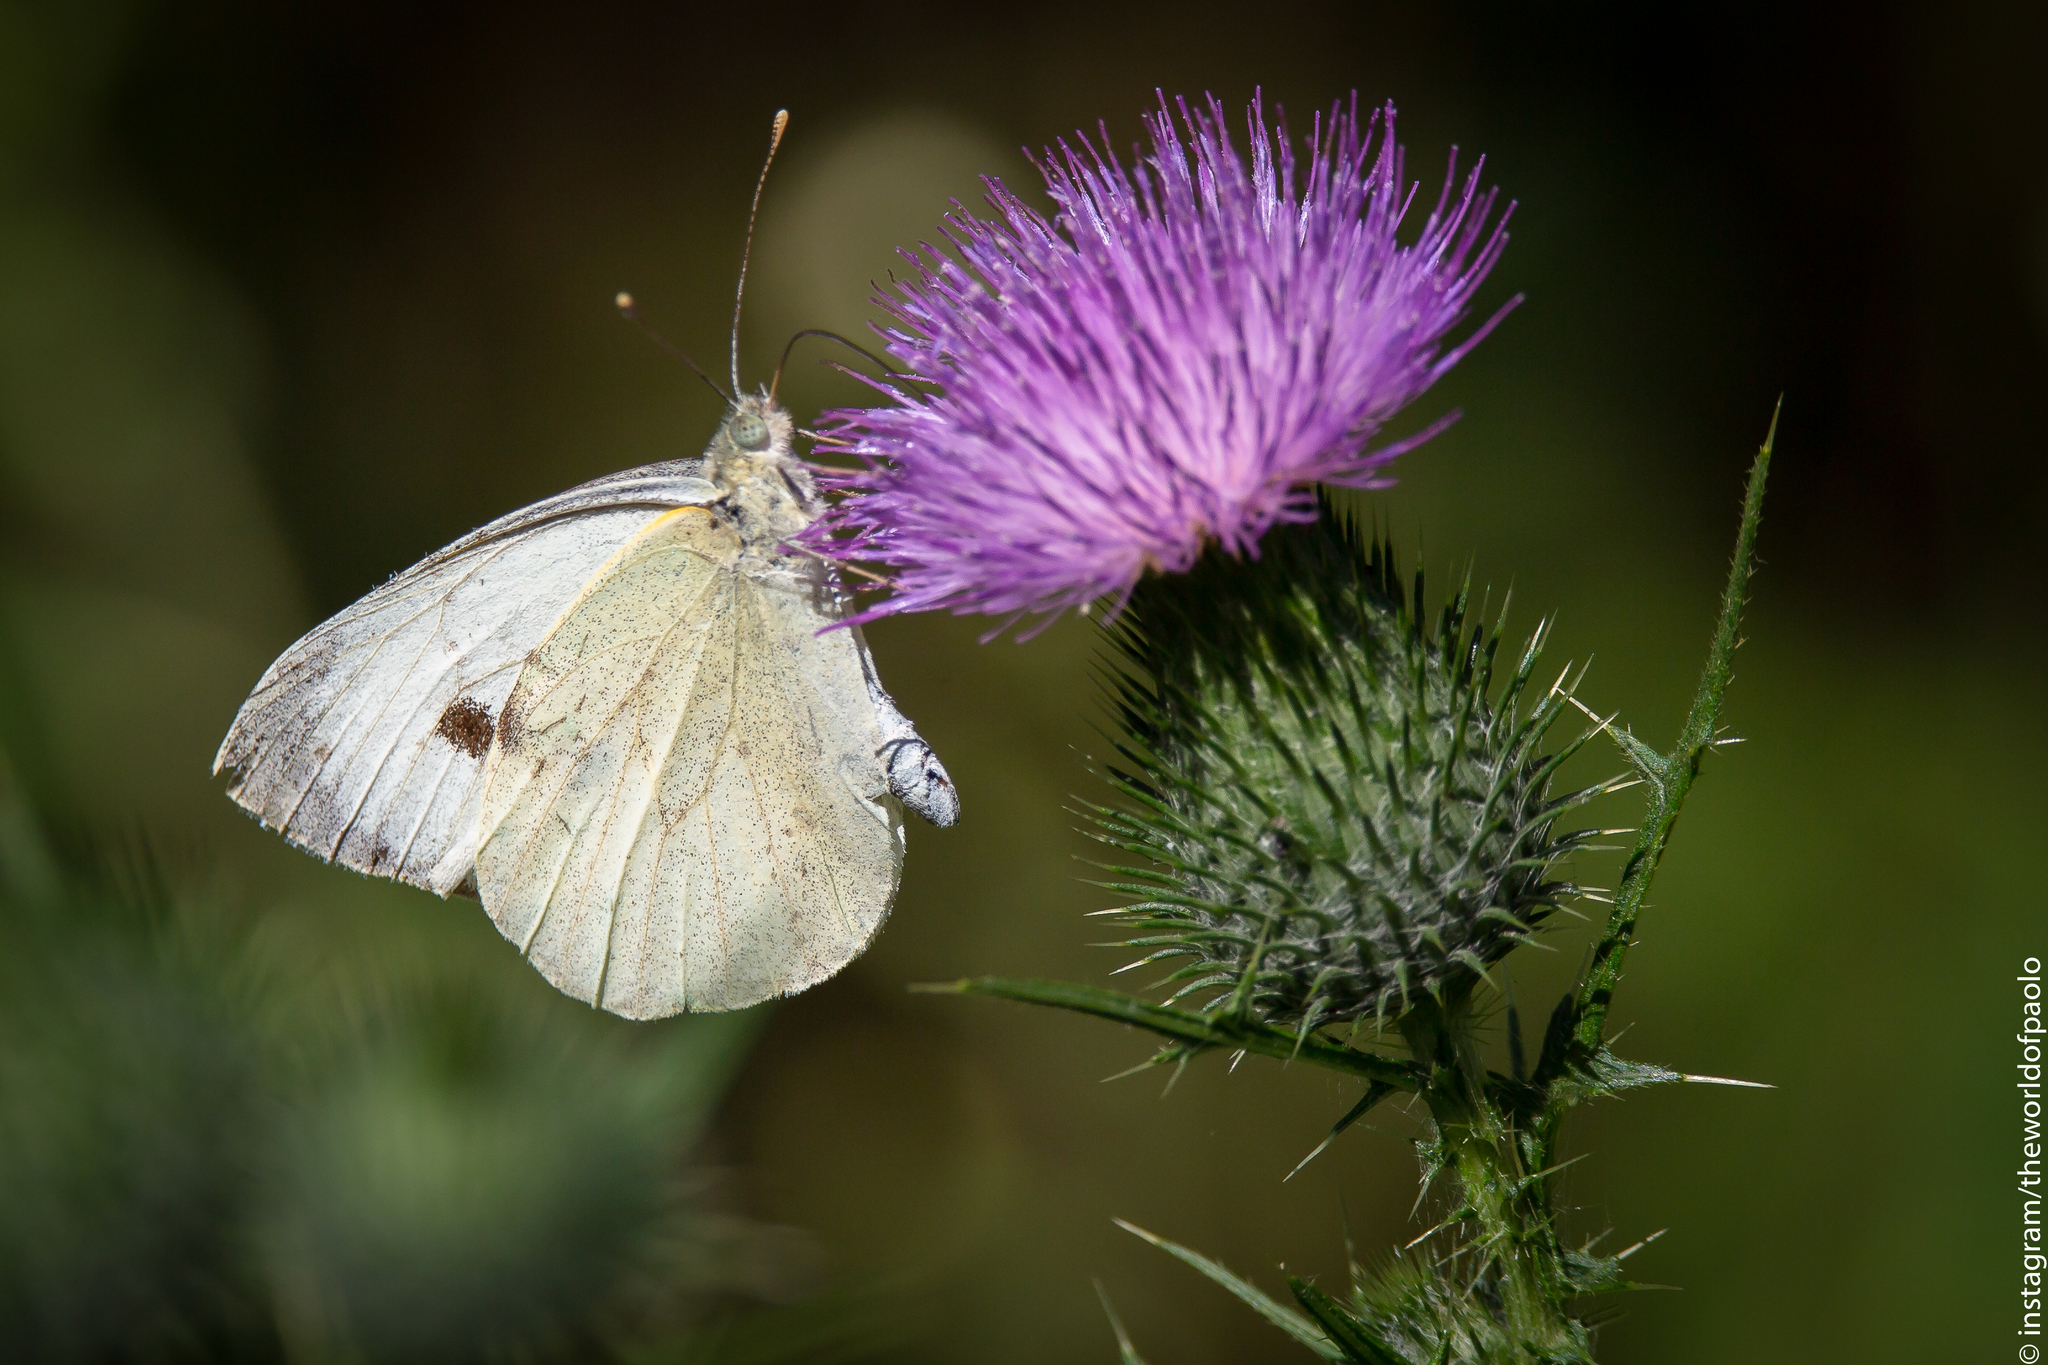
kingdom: Animalia
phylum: Arthropoda
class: Insecta
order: Lepidoptera
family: Pieridae
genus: Pieris
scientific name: Pieris brassicae
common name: Large white
